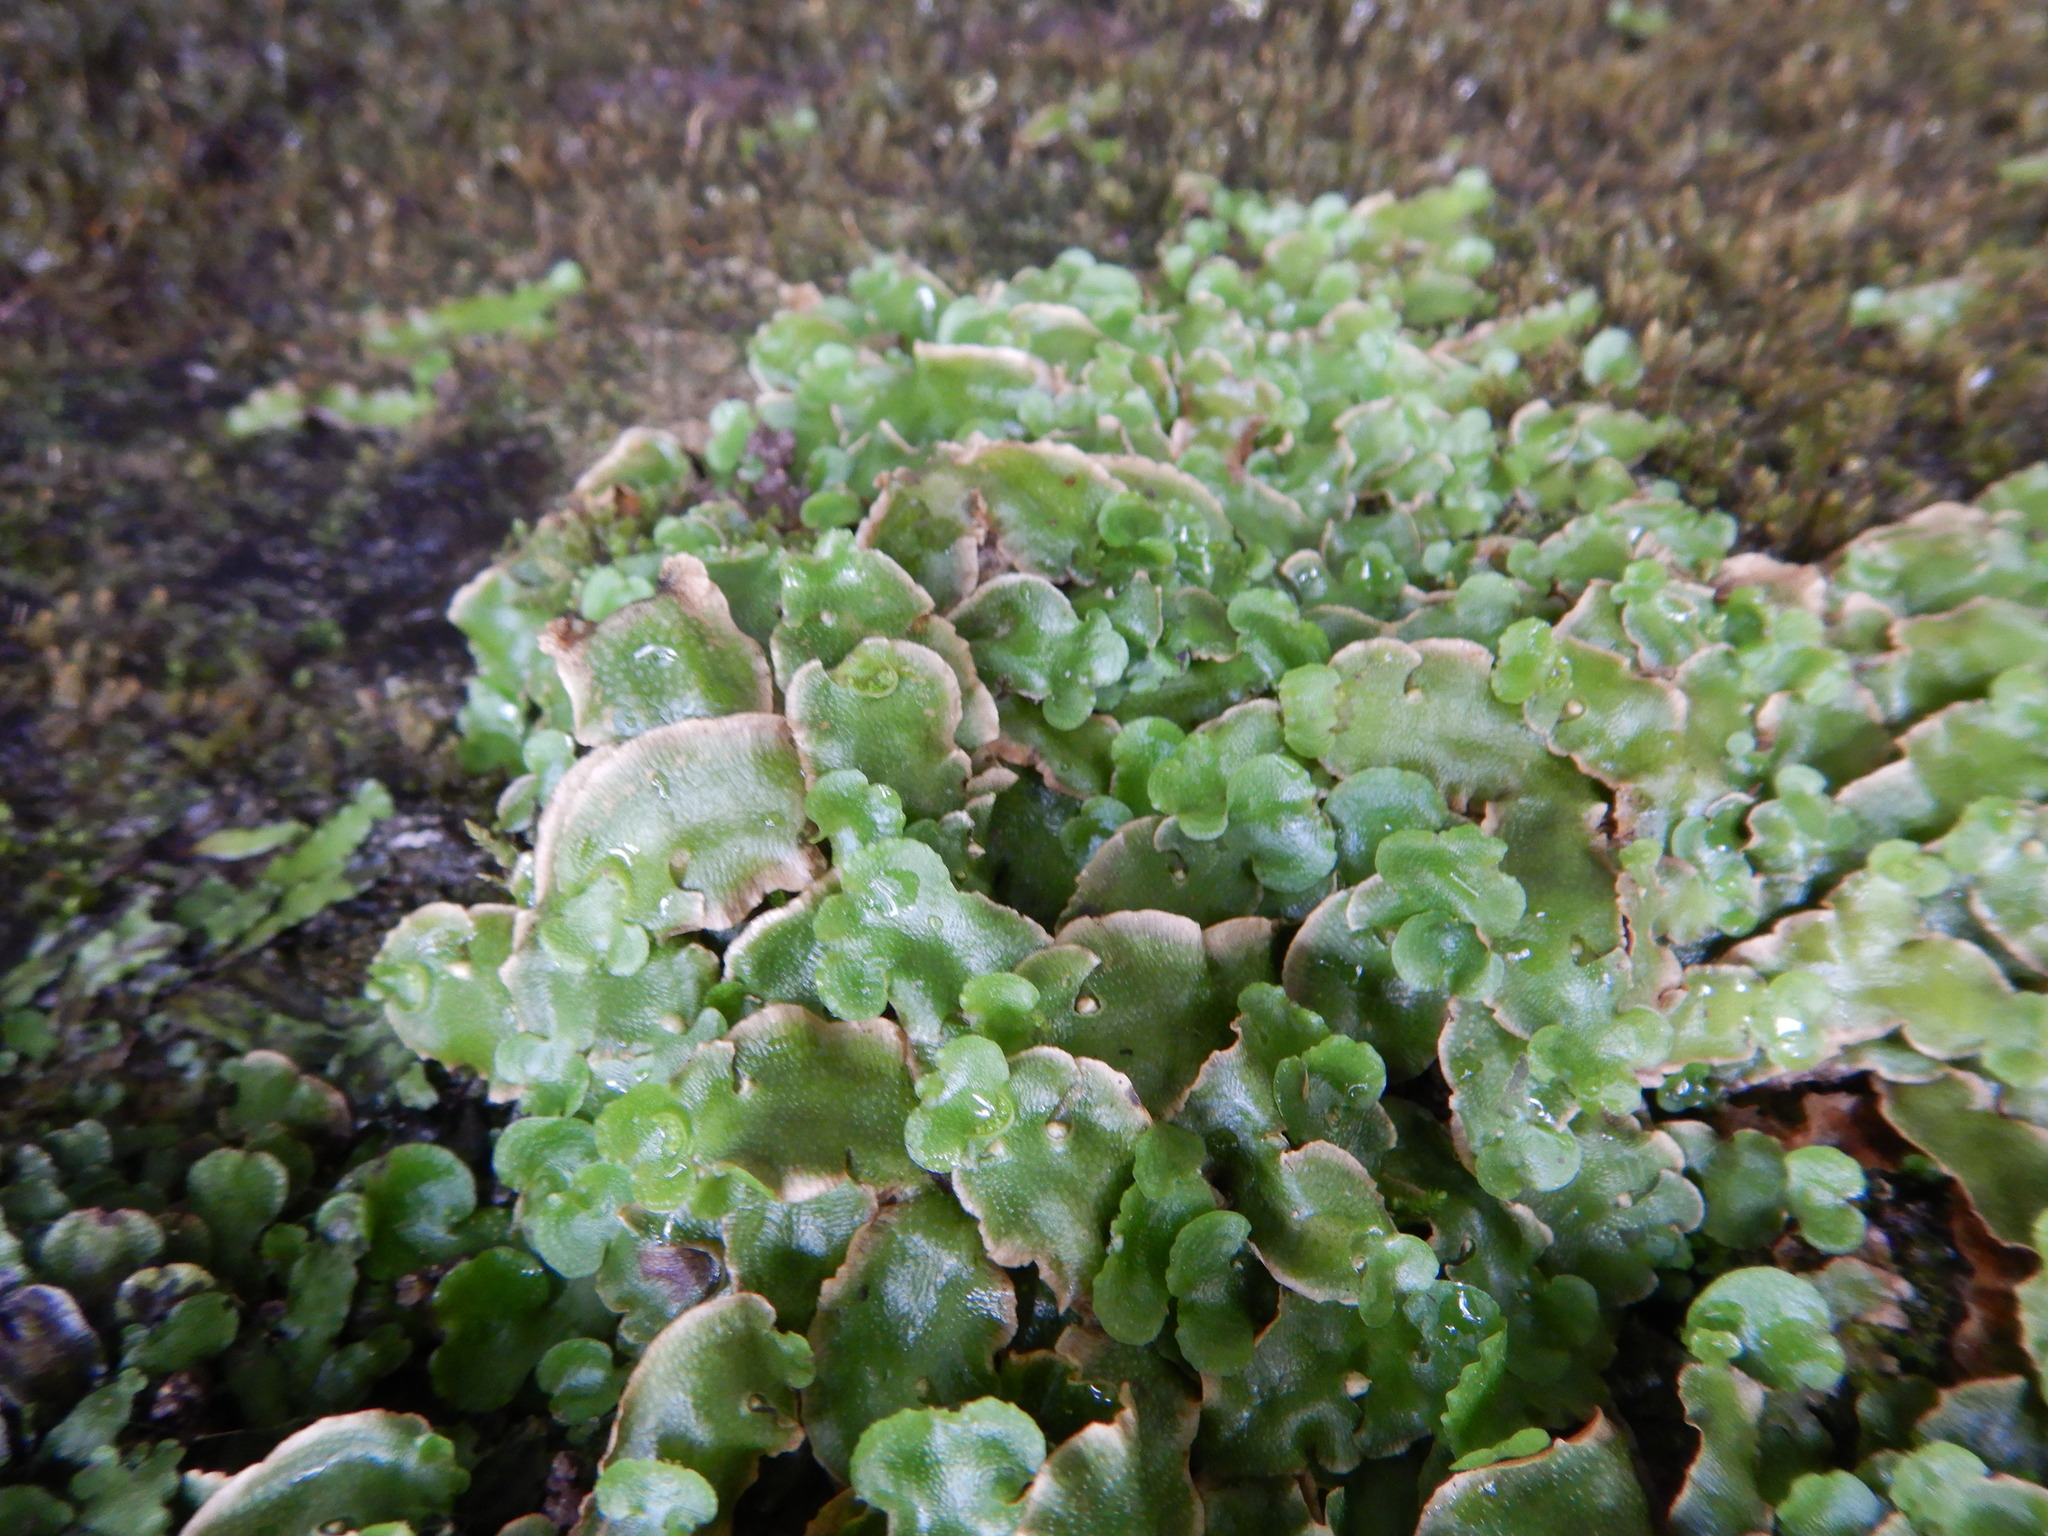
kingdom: Plantae
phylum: Marchantiophyta
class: Marchantiopsida
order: Lunulariales
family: Lunulariaceae
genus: Lunularia
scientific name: Lunularia cruciata
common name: Crescent-cup liverwort
